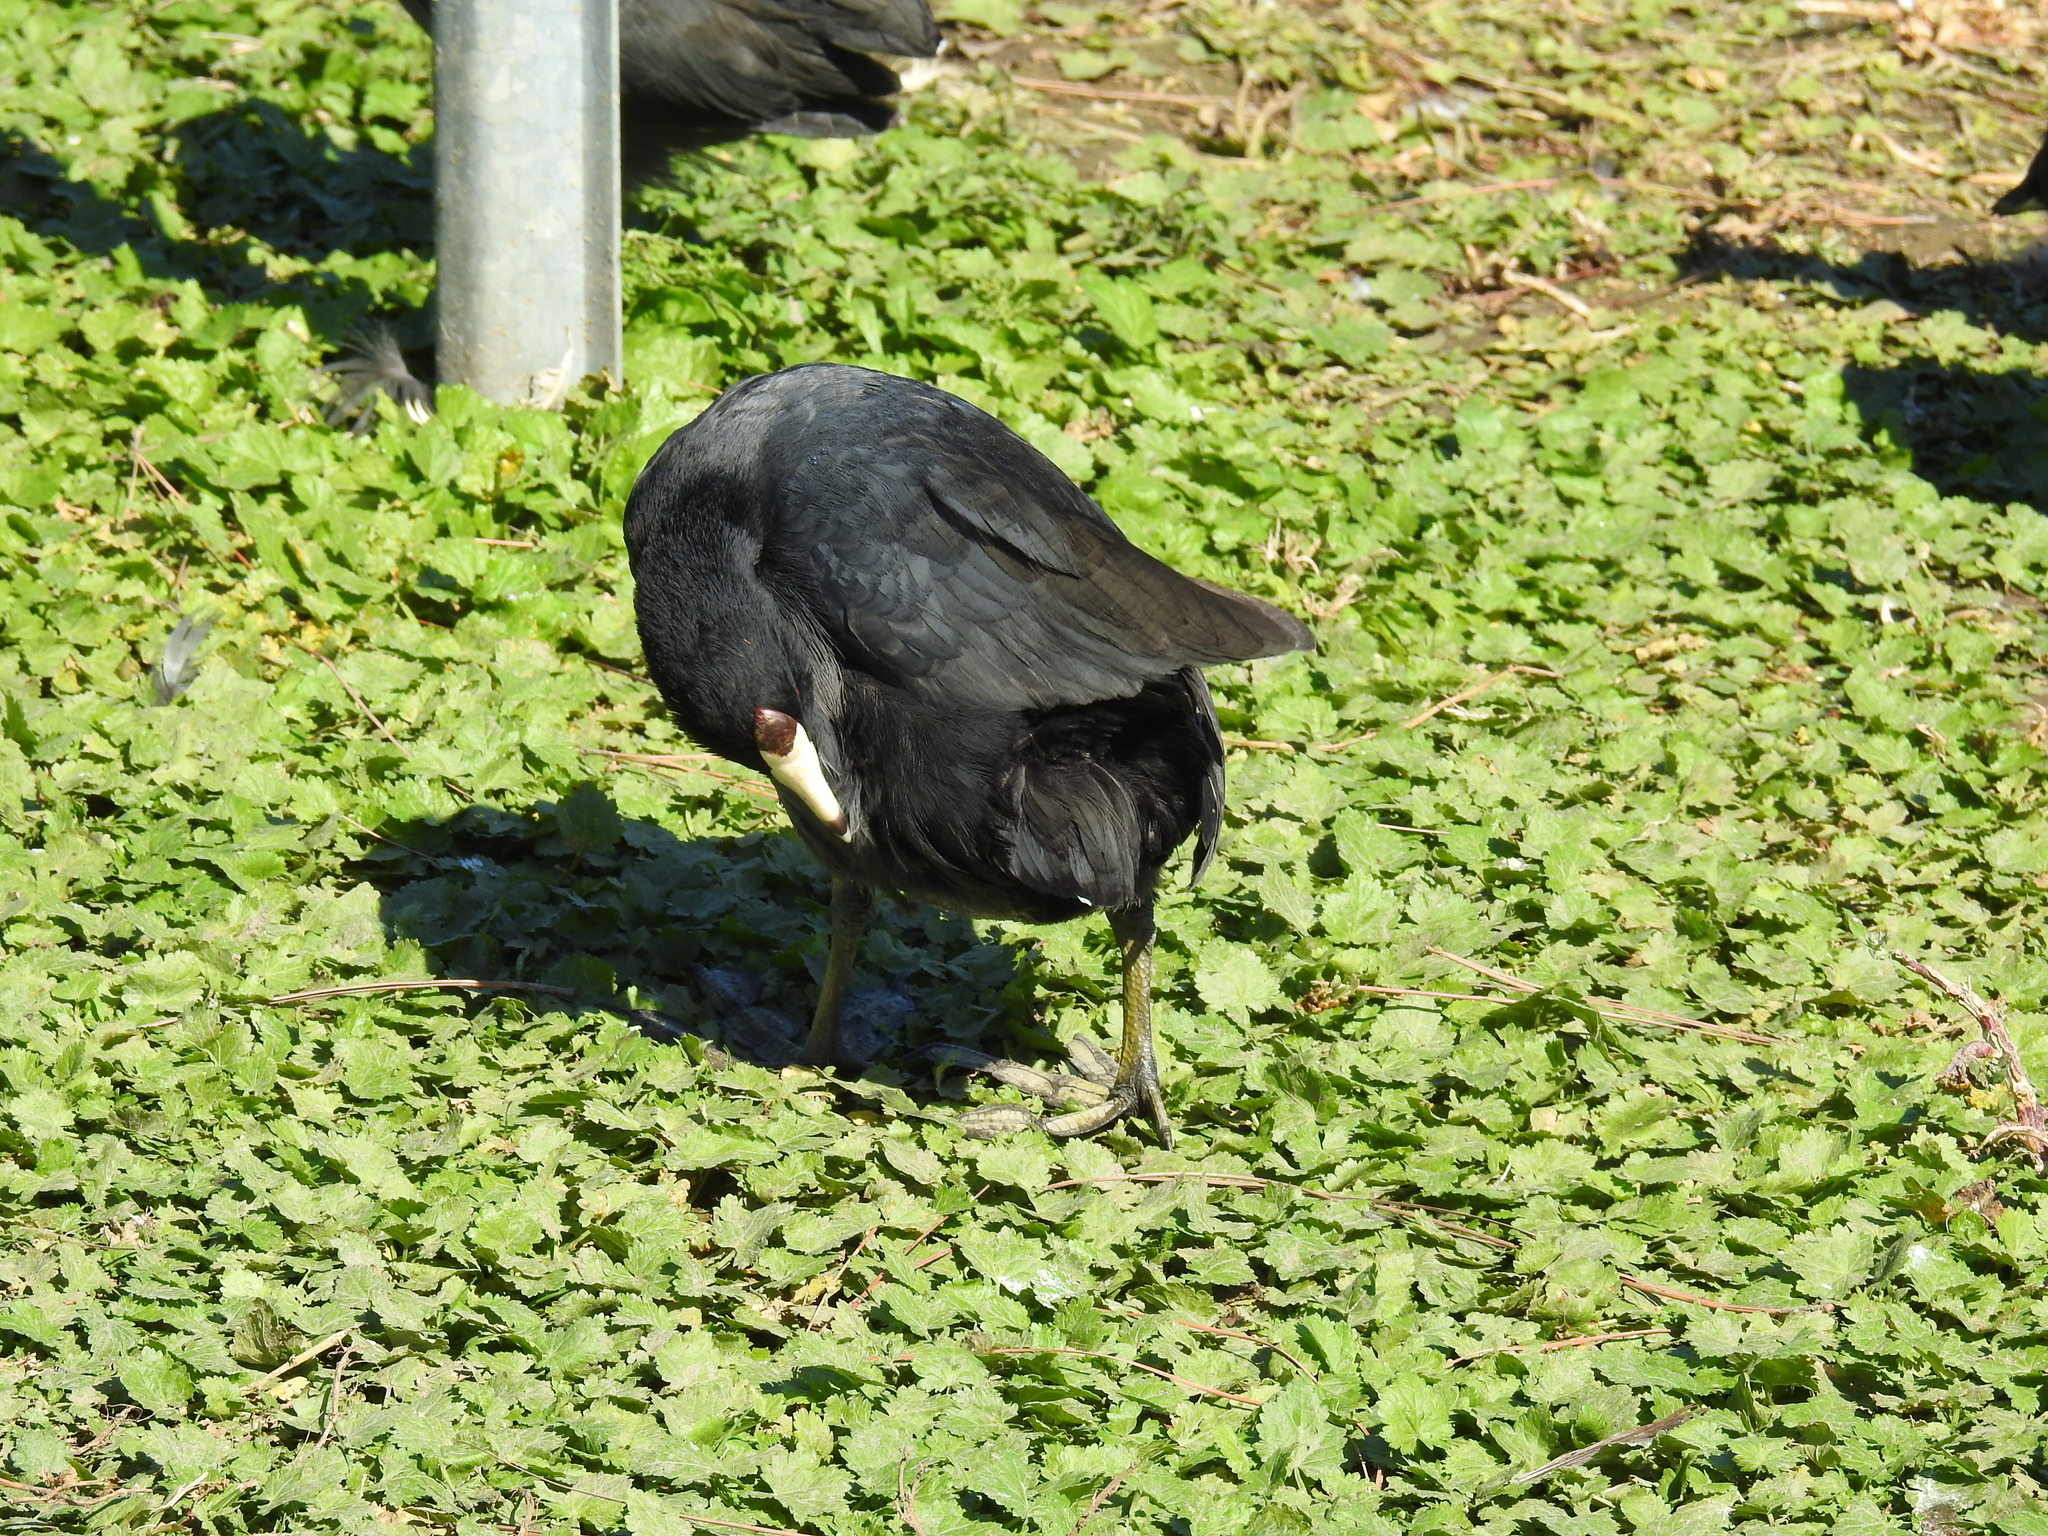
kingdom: Animalia
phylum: Chordata
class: Aves
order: Gruiformes
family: Rallidae
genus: Fulica
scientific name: Fulica americana
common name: American coot
